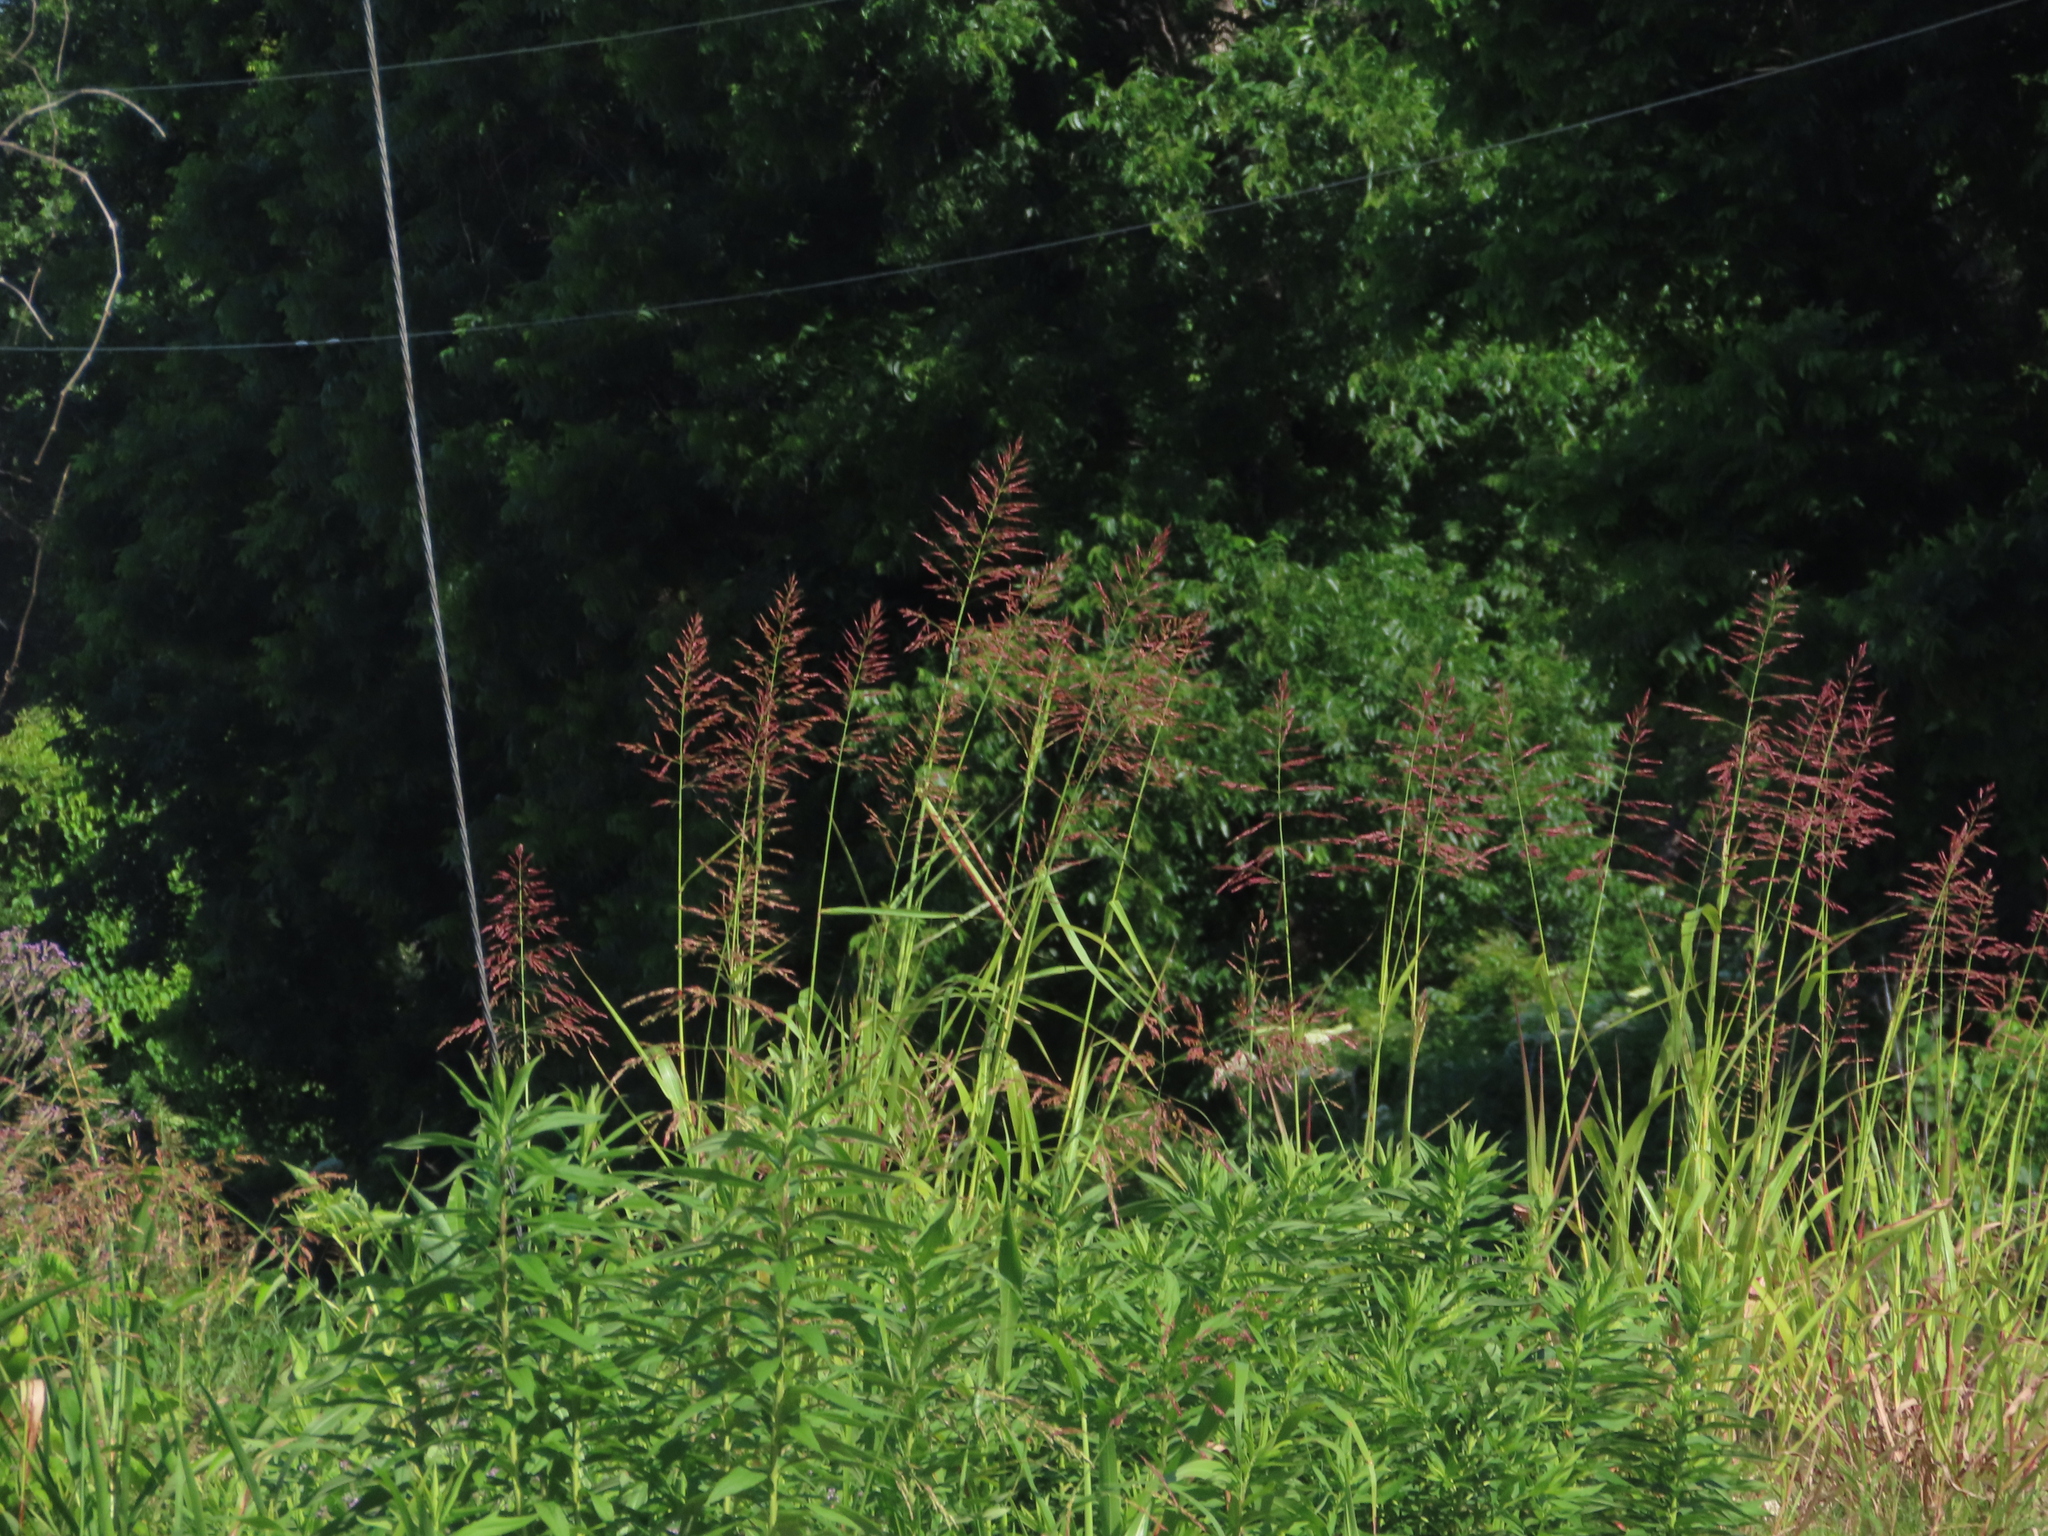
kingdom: Plantae
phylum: Tracheophyta
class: Liliopsida
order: Poales
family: Poaceae
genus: Sorghum
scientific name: Sorghum halepense
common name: Johnson-grass
